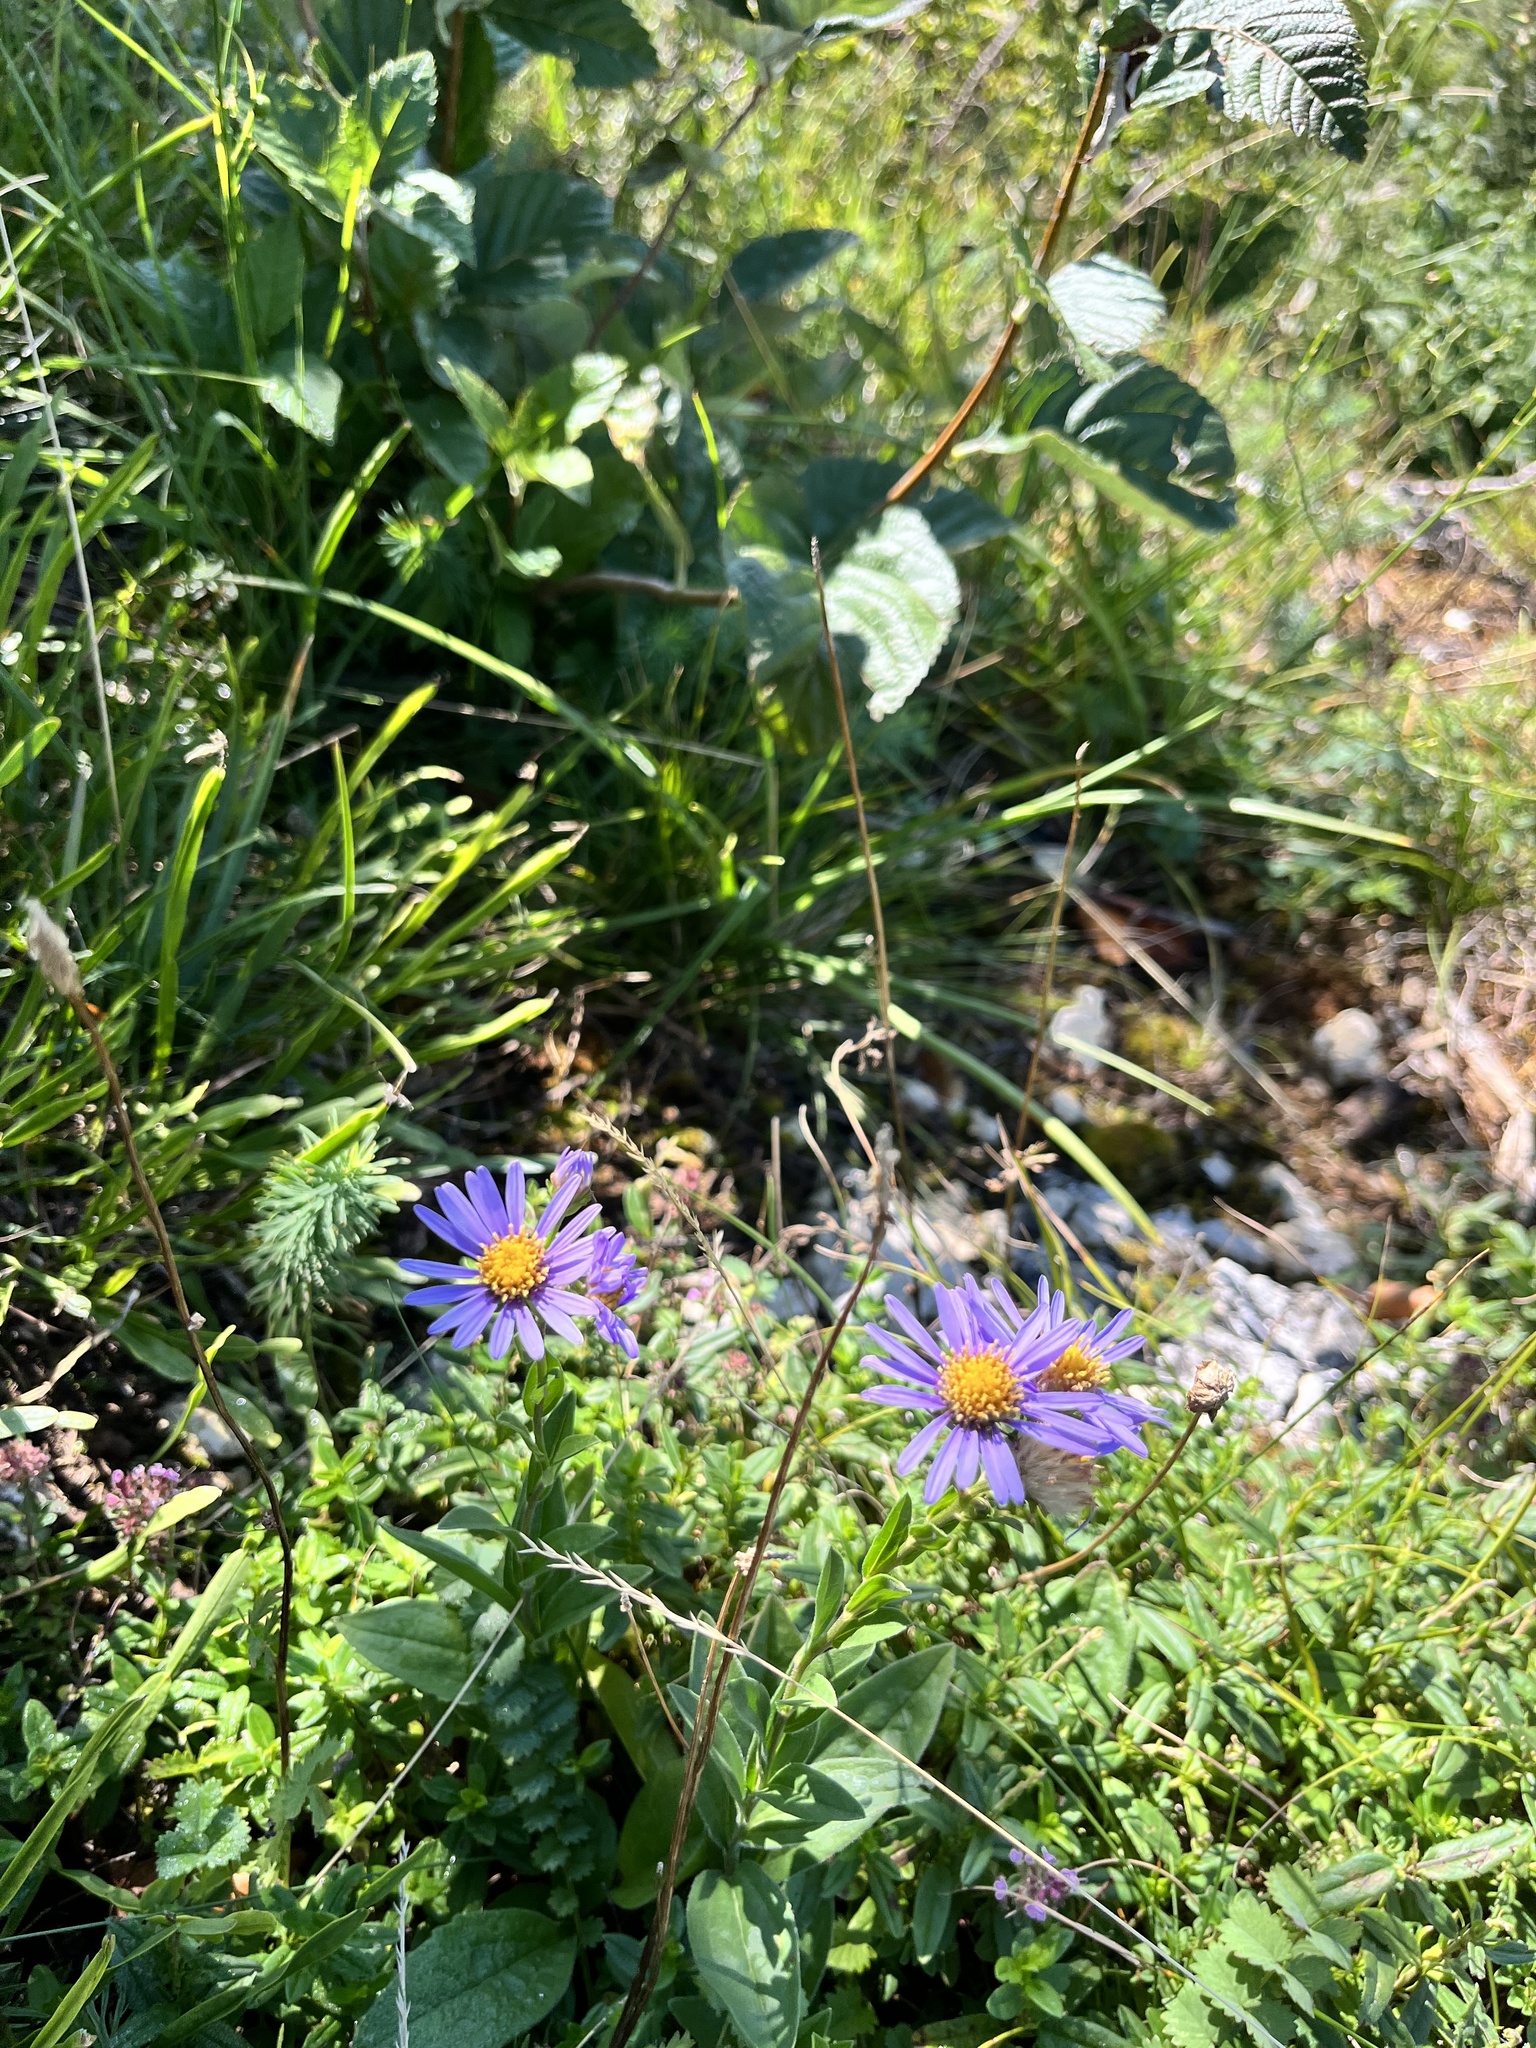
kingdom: Plantae
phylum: Tracheophyta
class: Magnoliopsida
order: Asterales
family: Asteraceae
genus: Aster
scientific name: Aster amellus
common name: European michaelmas daisy
